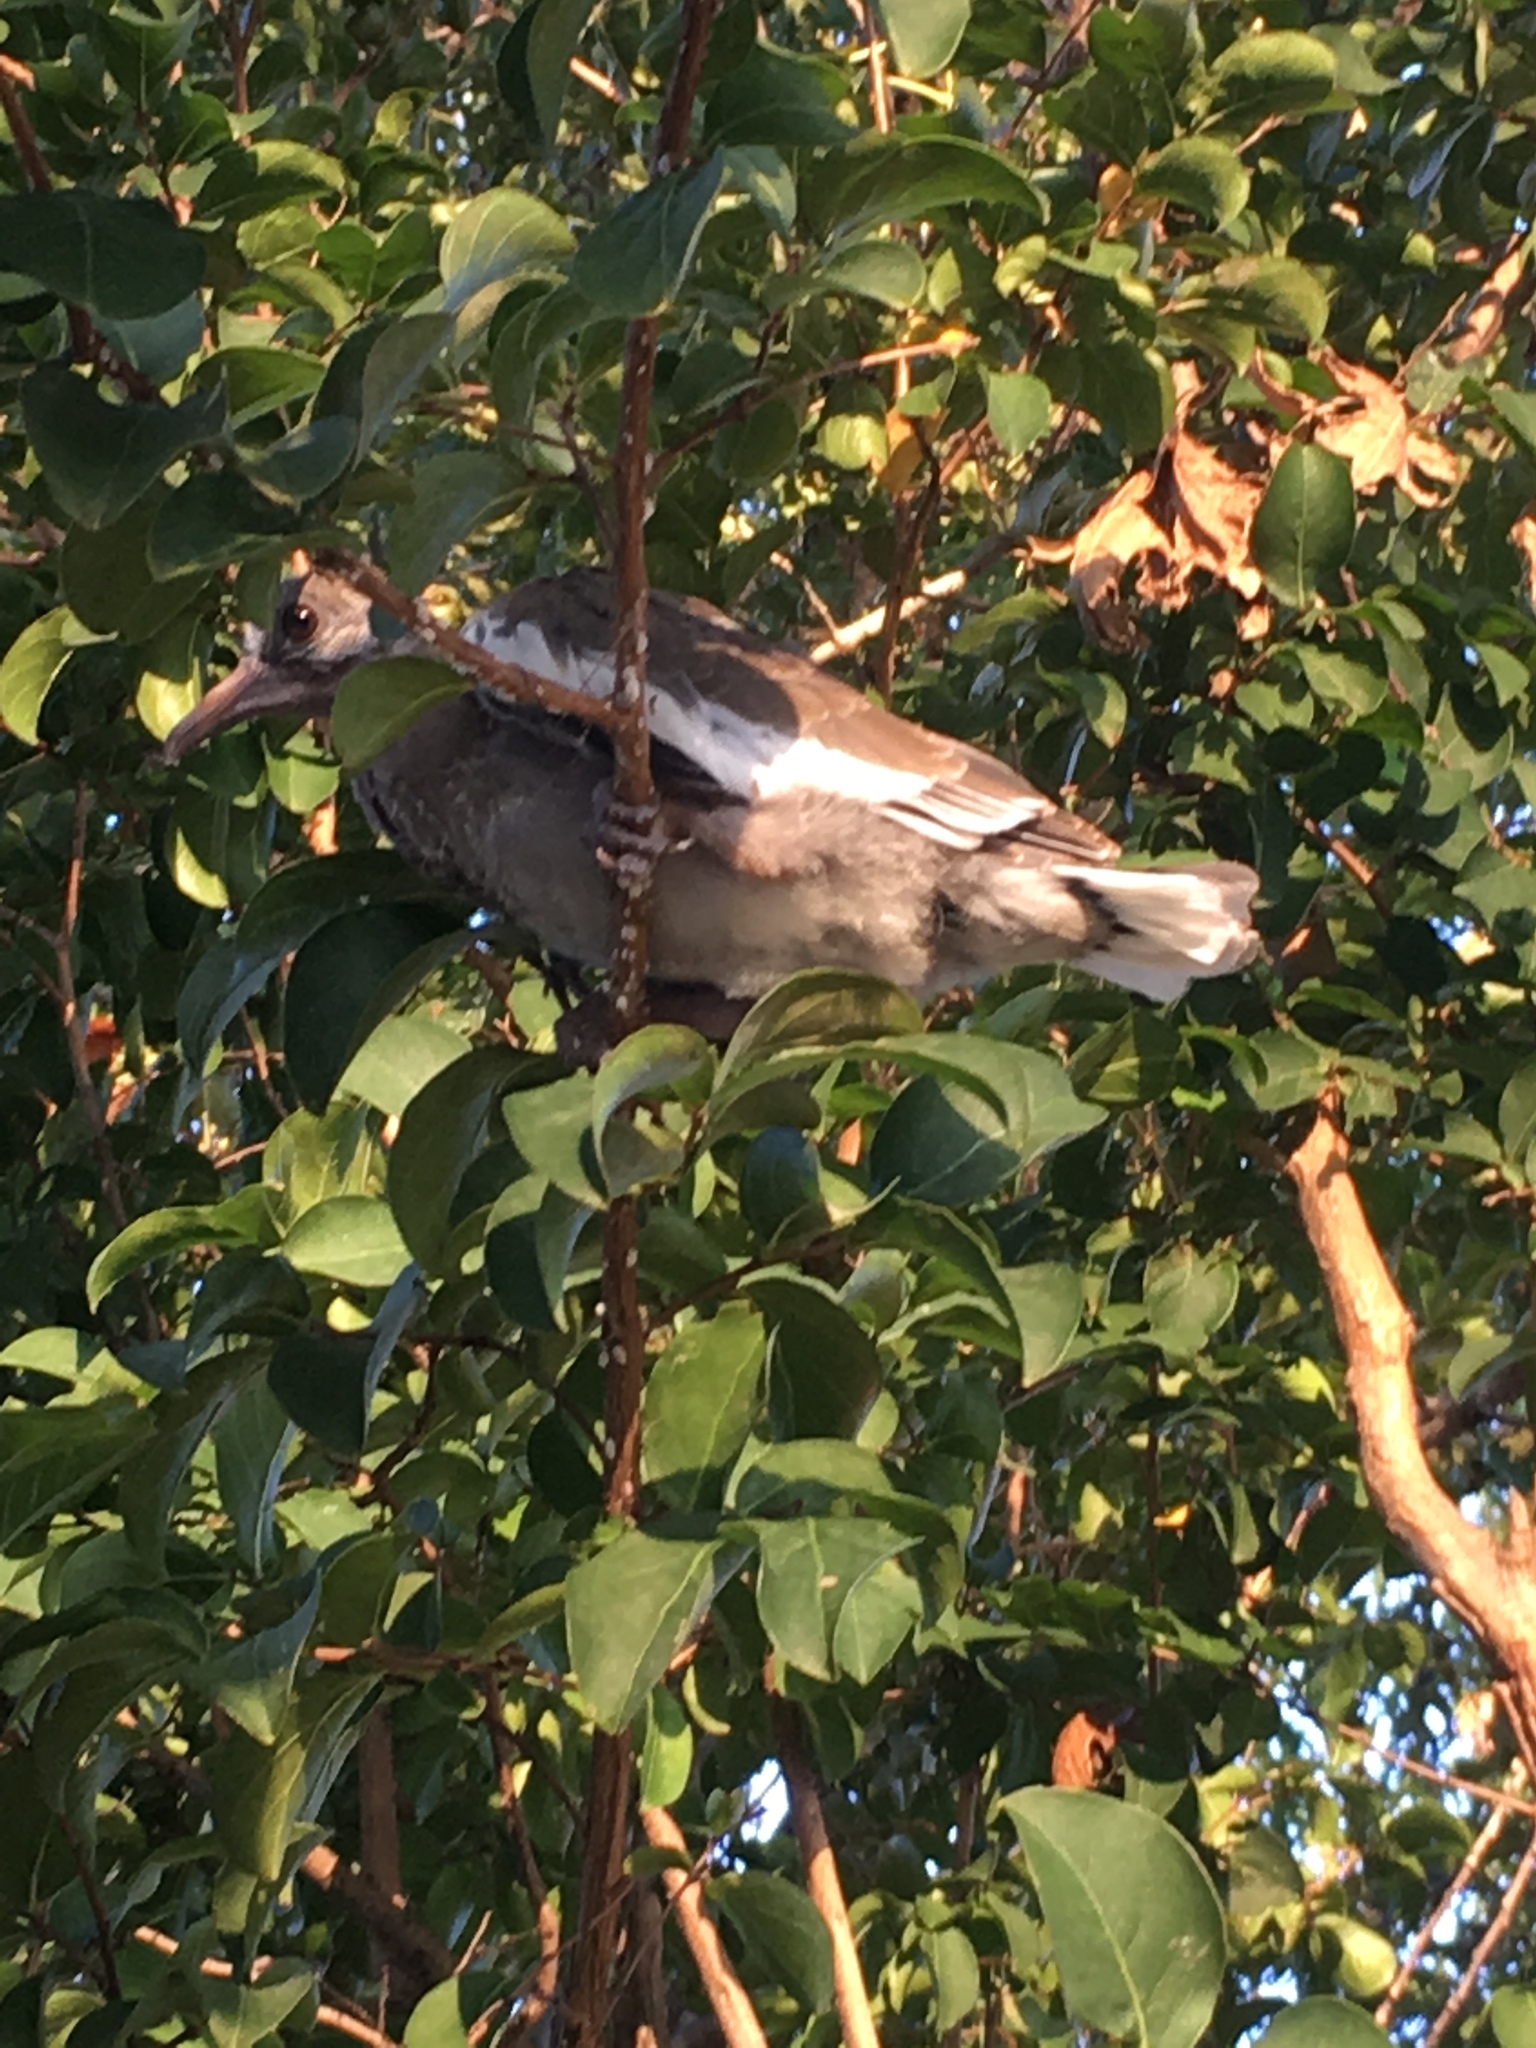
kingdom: Animalia
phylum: Chordata
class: Aves
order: Columbiformes
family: Columbidae
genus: Zenaida
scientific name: Zenaida asiatica
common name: White-winged dove
